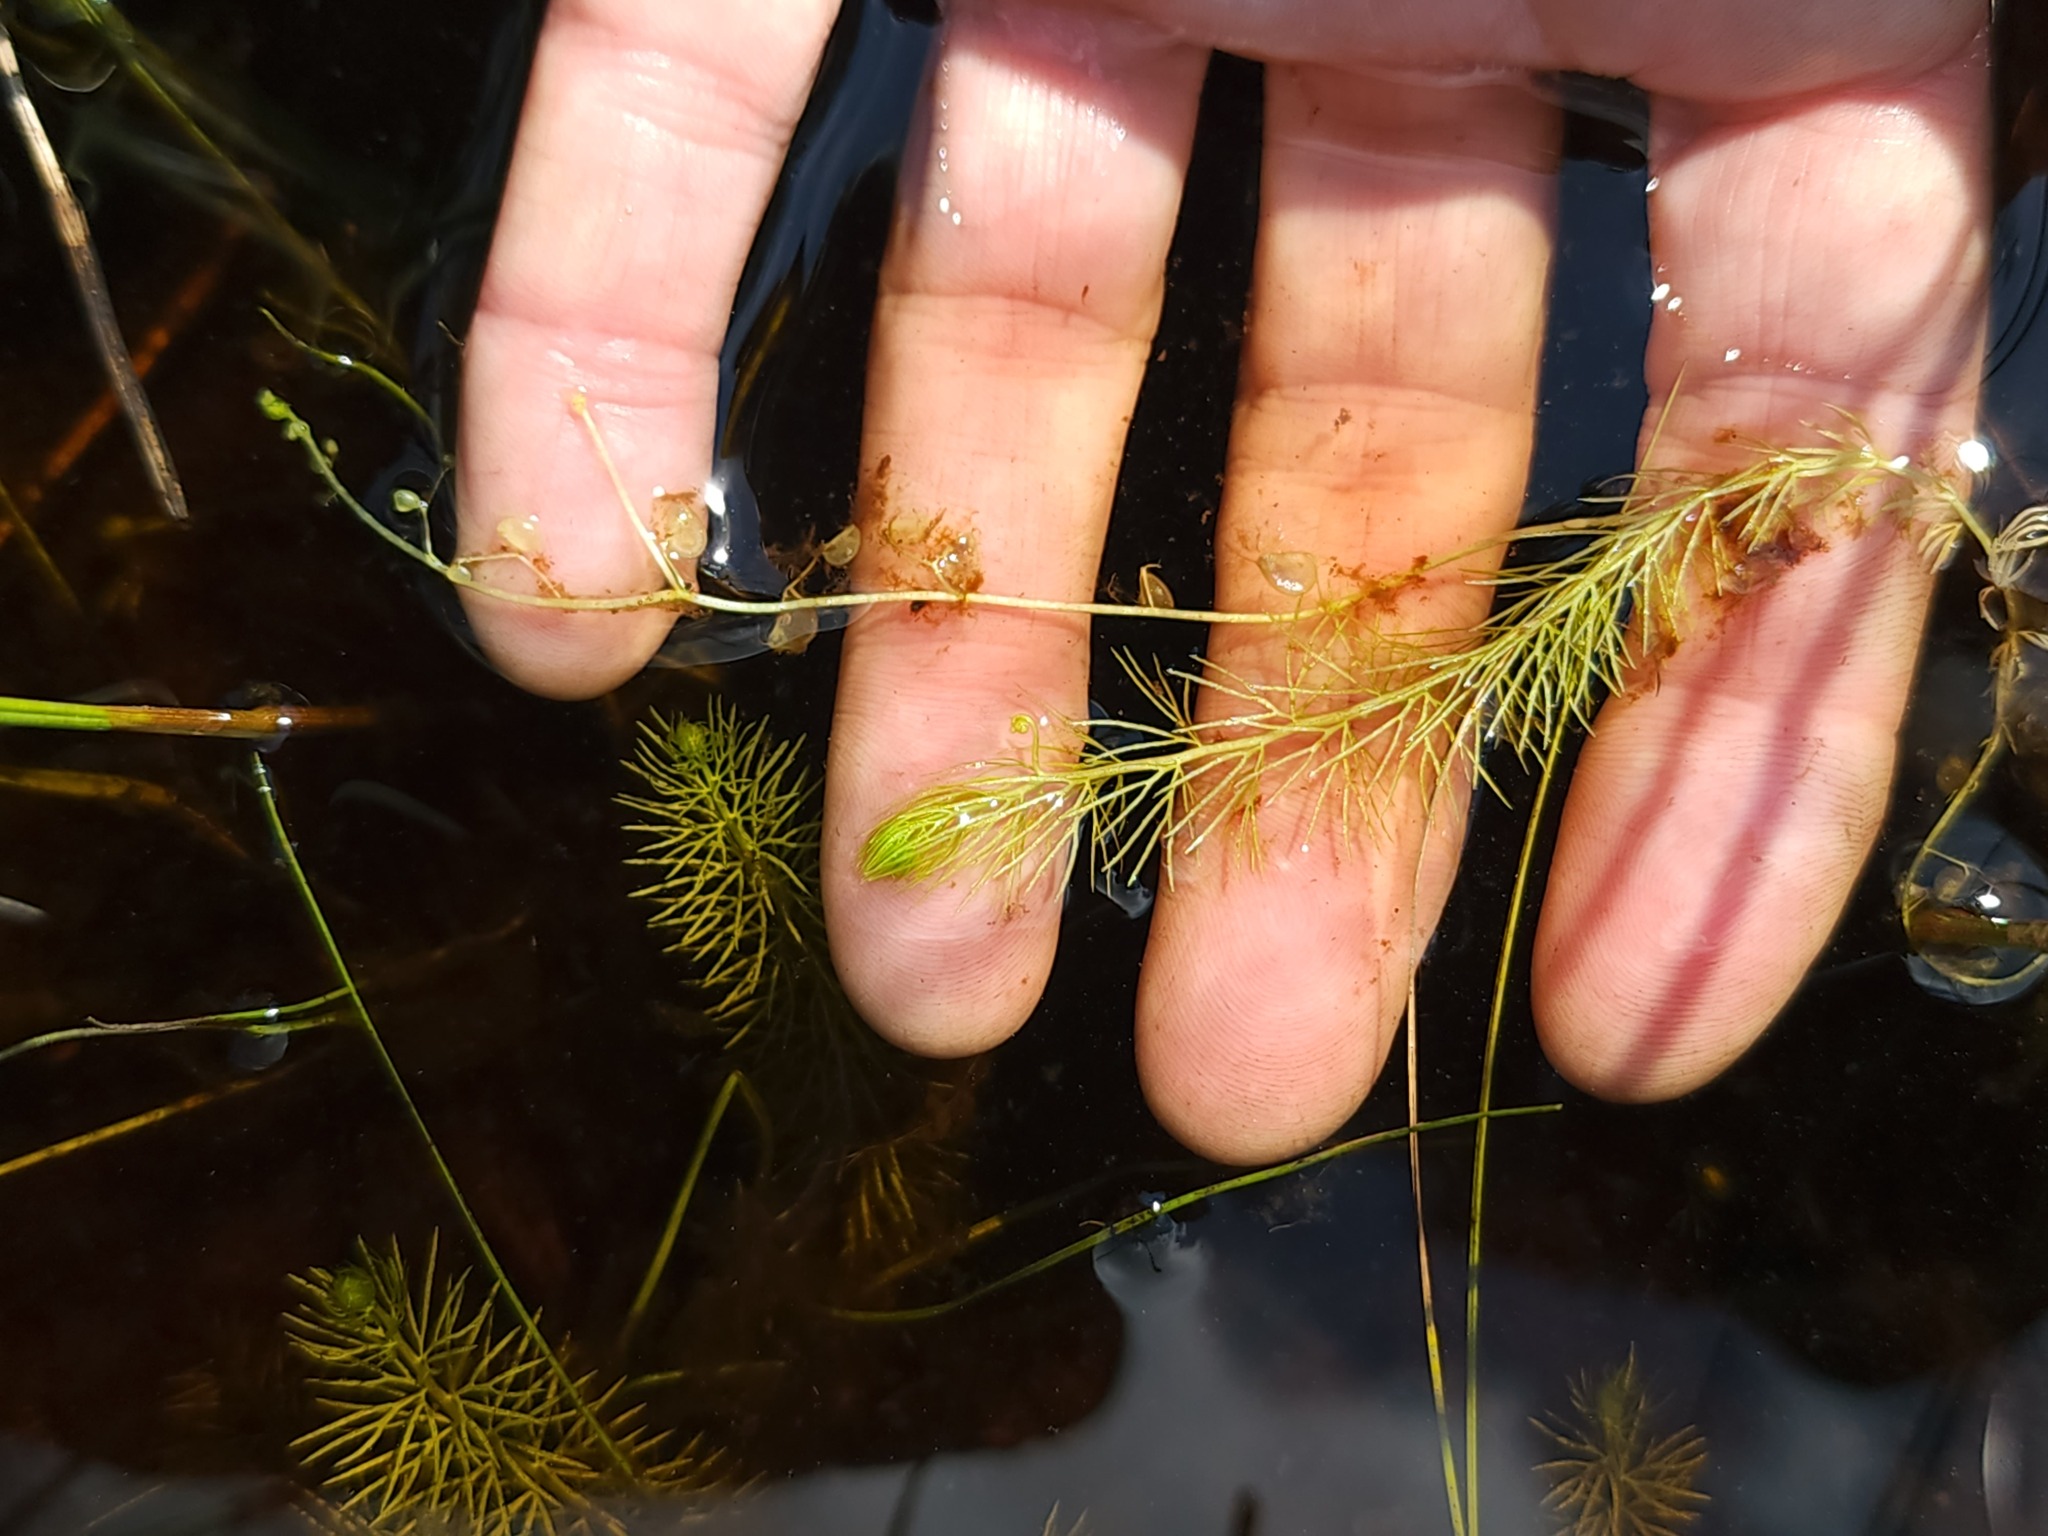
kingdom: Plantae
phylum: Tracheophyta
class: Magnoliopsida
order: Lamiales
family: Lentibulariaceae
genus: Utricularia
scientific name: Utricularia intermedia
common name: Intermediate bladderwort
